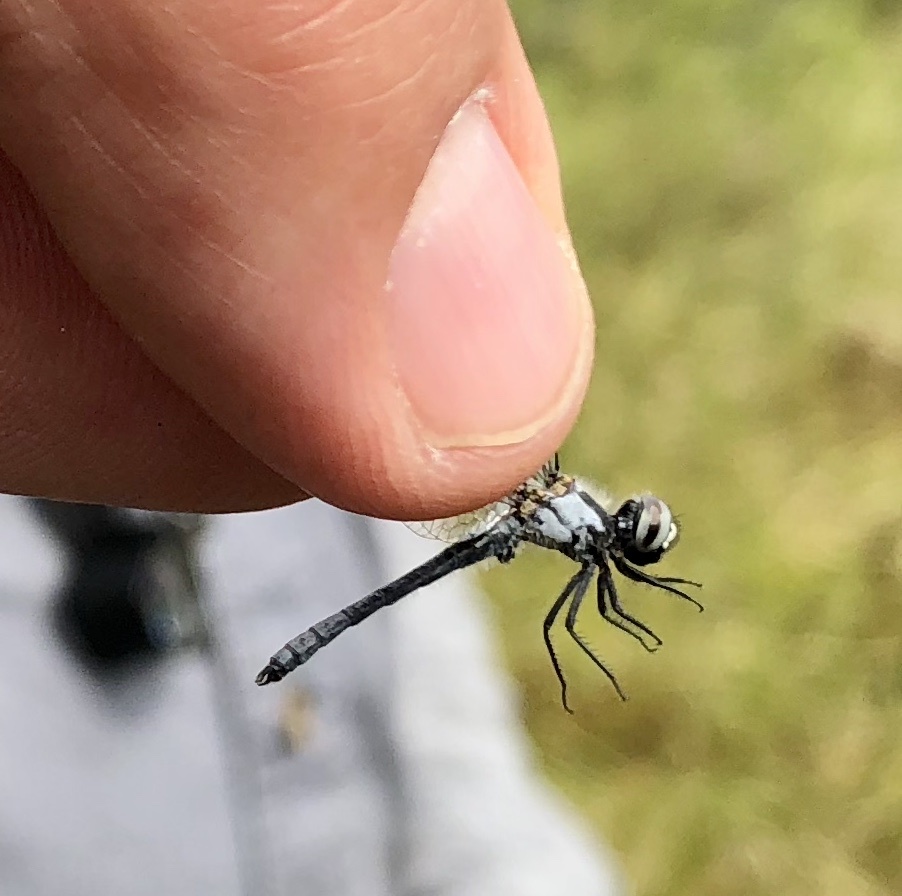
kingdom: Animalia
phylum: Arthropoda
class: Insecta
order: Odonata
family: Libellulidae
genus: Nannothemis
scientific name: Nannothemis bella
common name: Elfin skimmer
